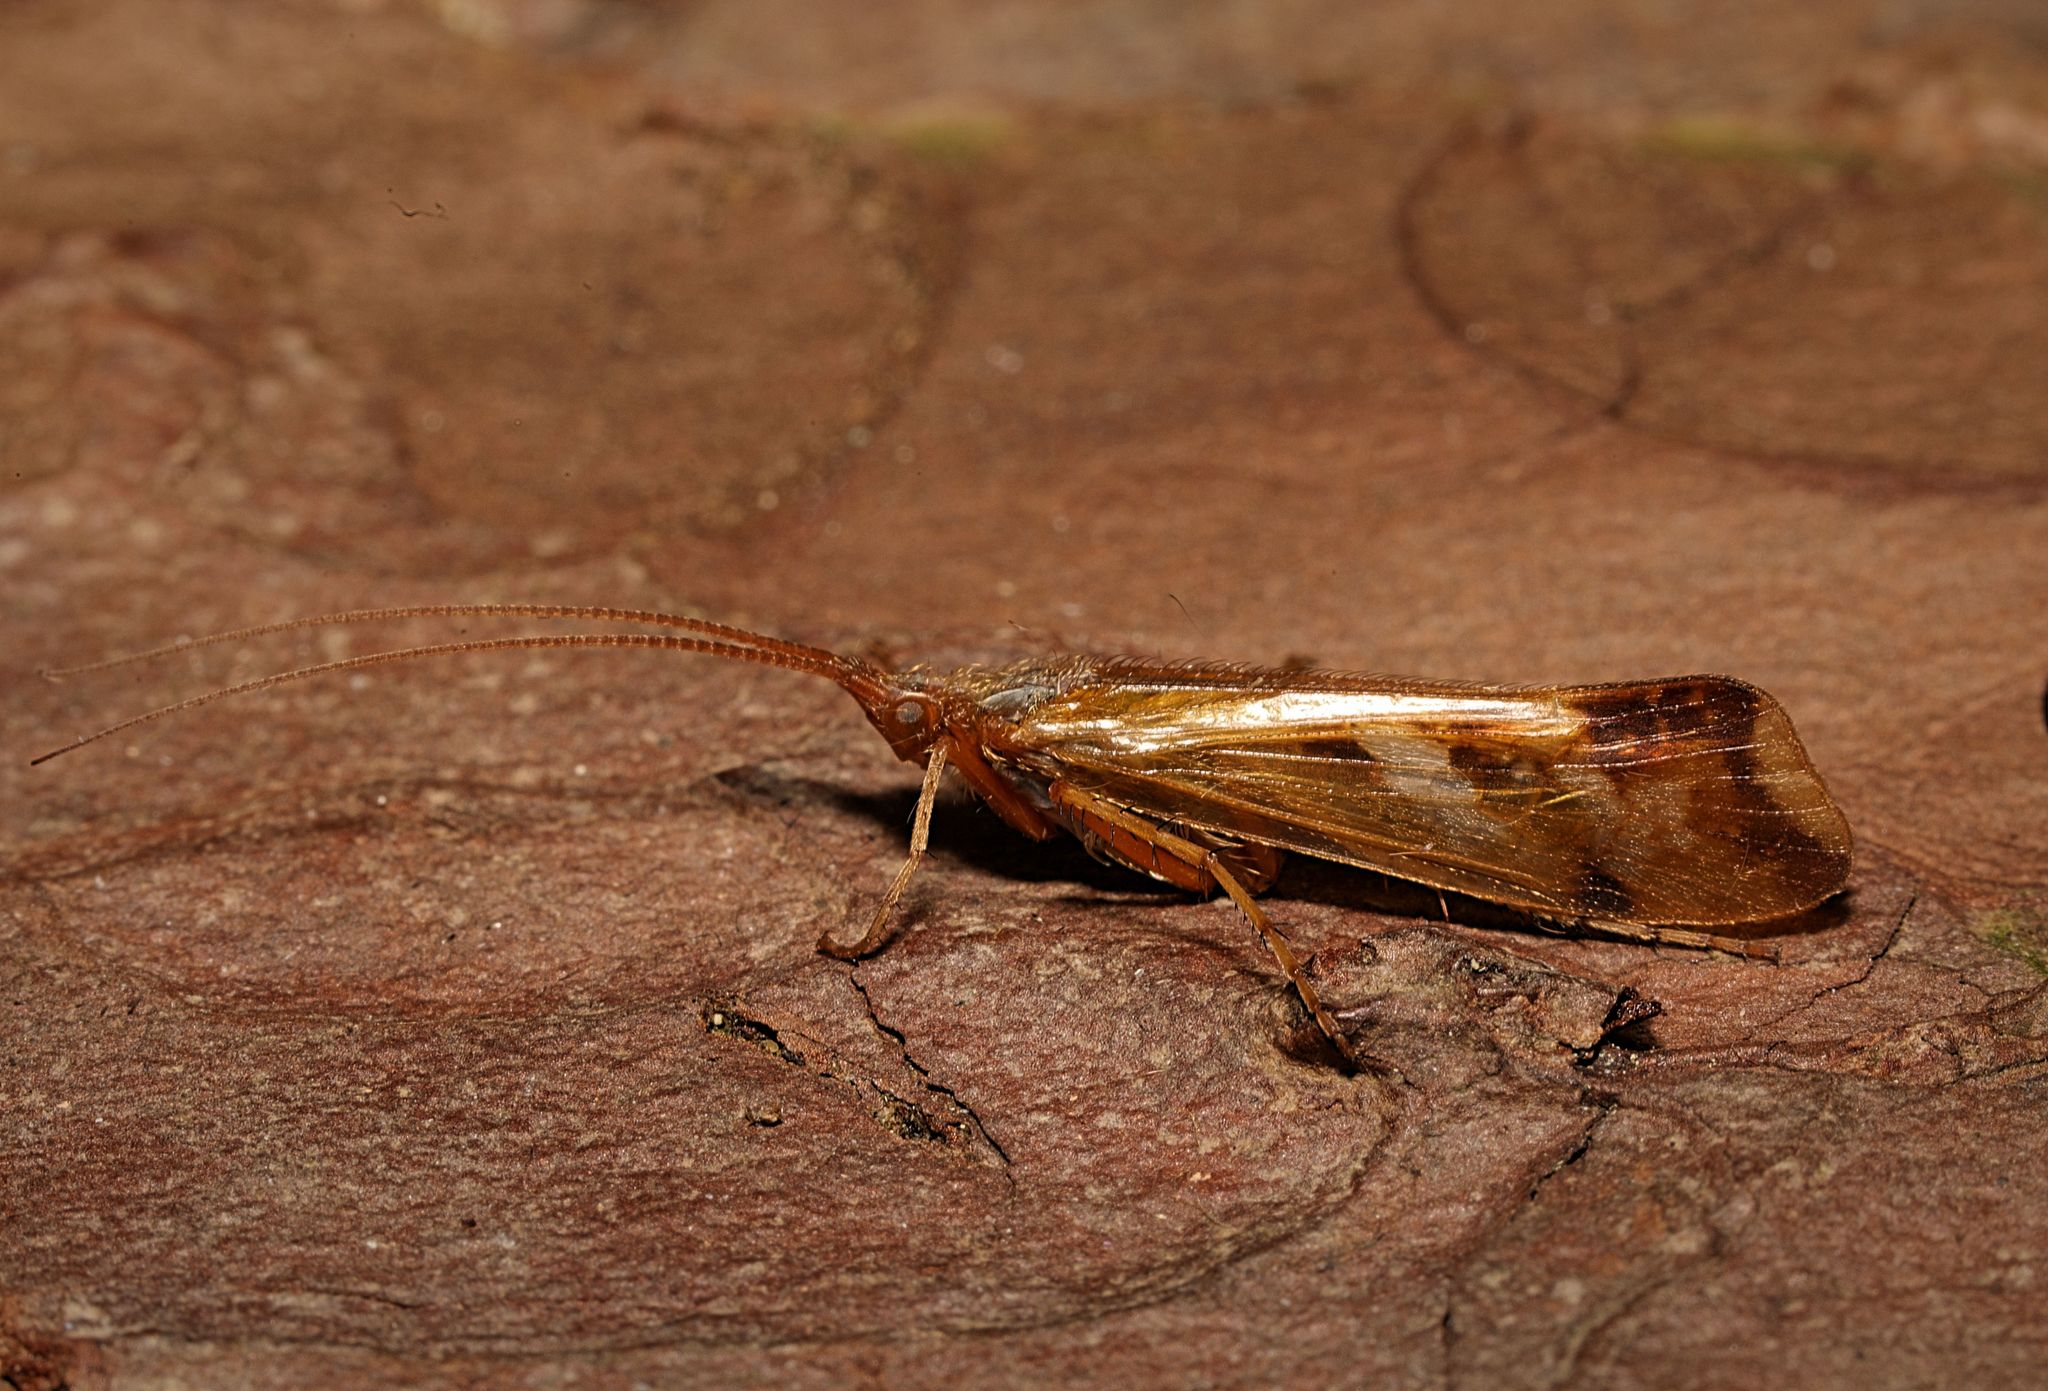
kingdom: Animalia
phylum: Arthropoda
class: Insecta
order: Trichoptera
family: Limnephilidae
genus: Limnephilus
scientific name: Limnephilus lunatus
